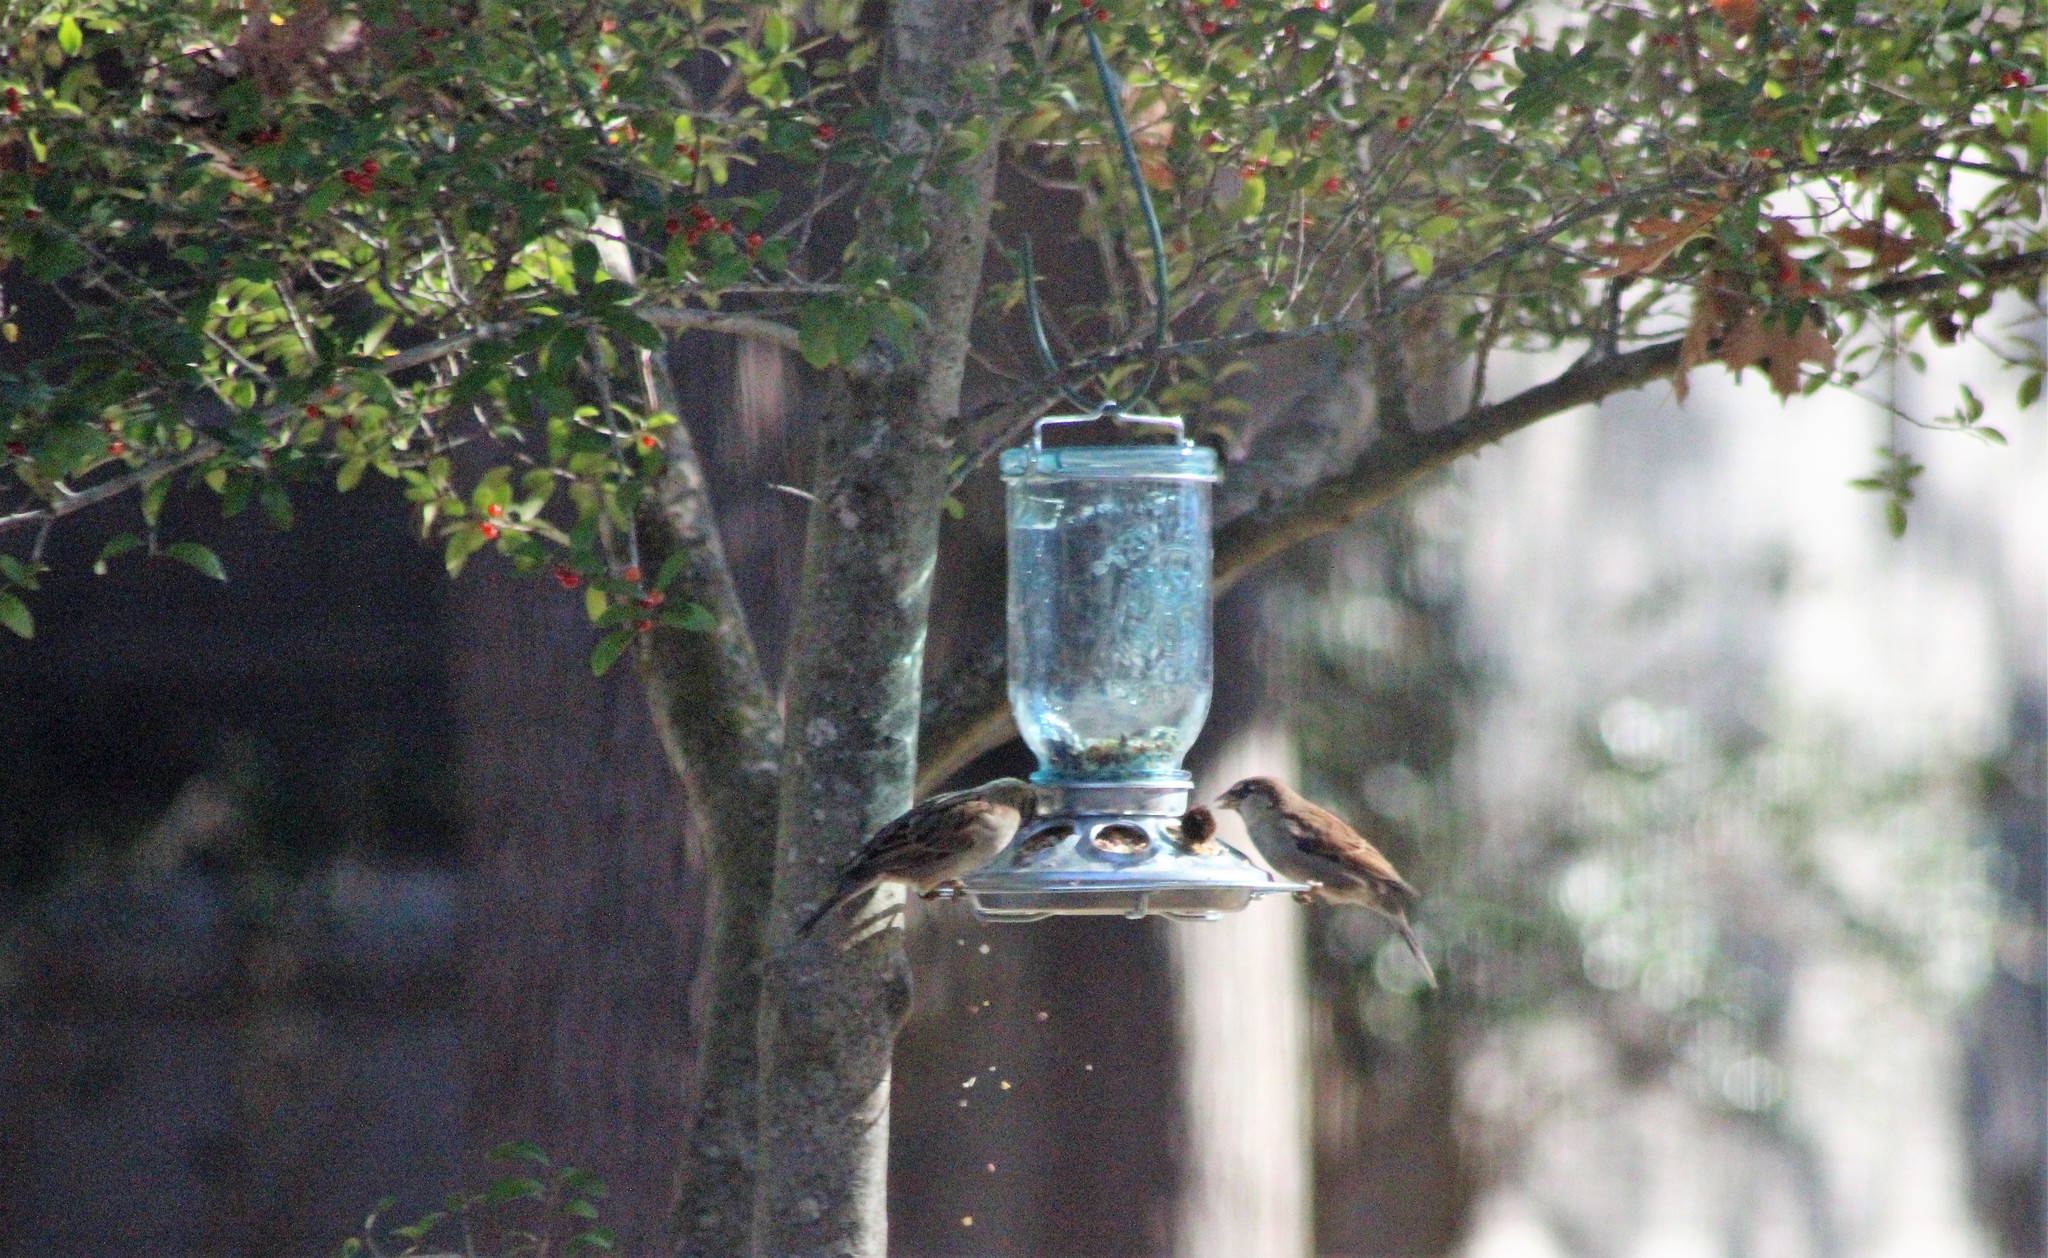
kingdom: Animalia
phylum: Chordata
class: Aves
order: Passeriformes
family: Passeridae
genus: Passer
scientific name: Passer domesticus
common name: House sparrow
